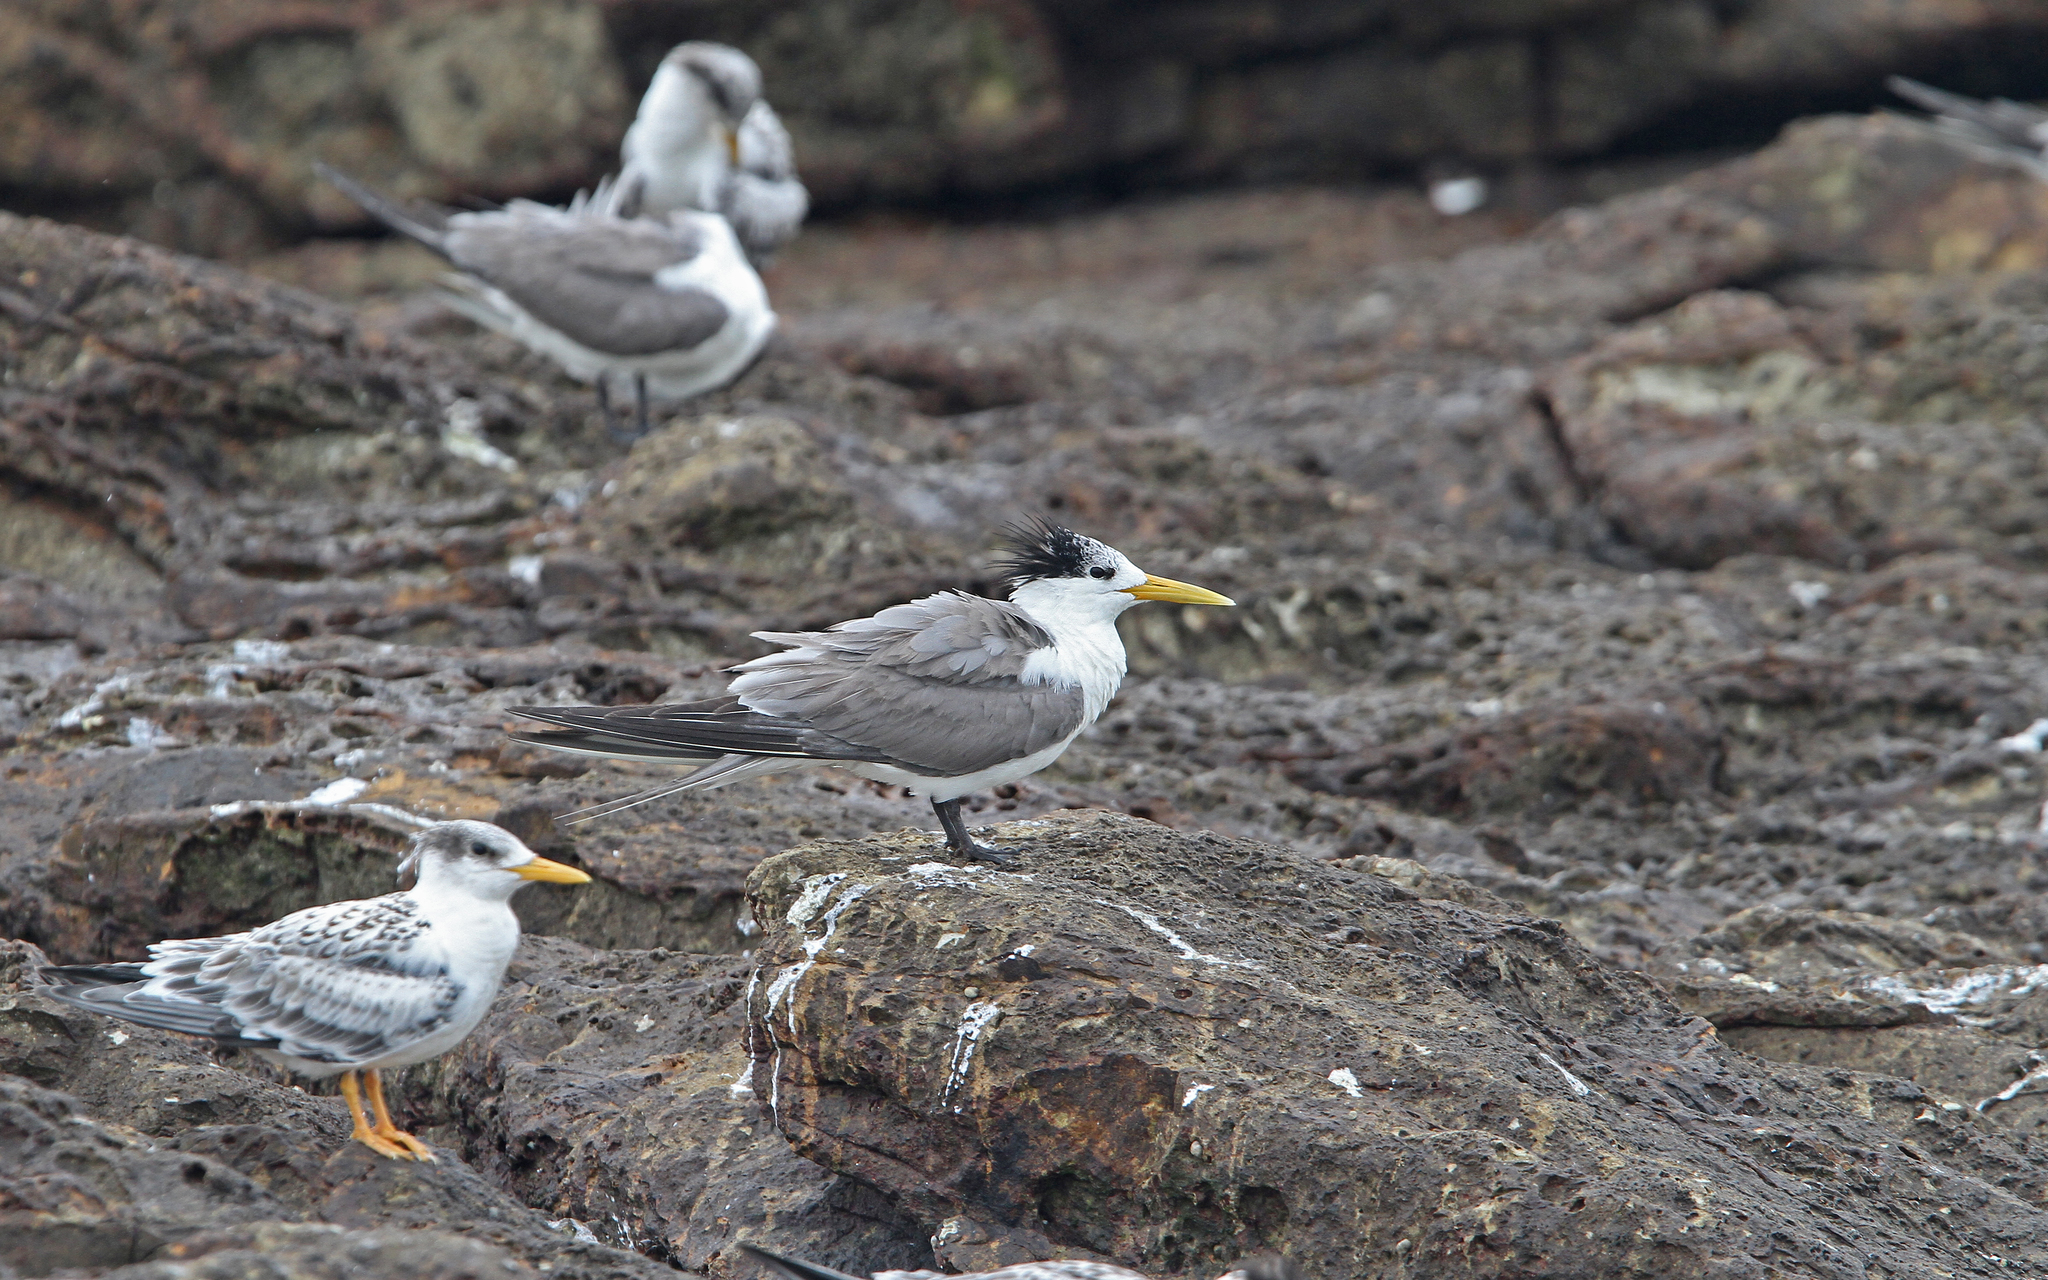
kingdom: Animalia
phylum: Chordata
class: Aves
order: Charadriiformes
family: Laridae
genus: Thalasseus
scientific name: Thalasseus bergii
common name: Greater crested tern
